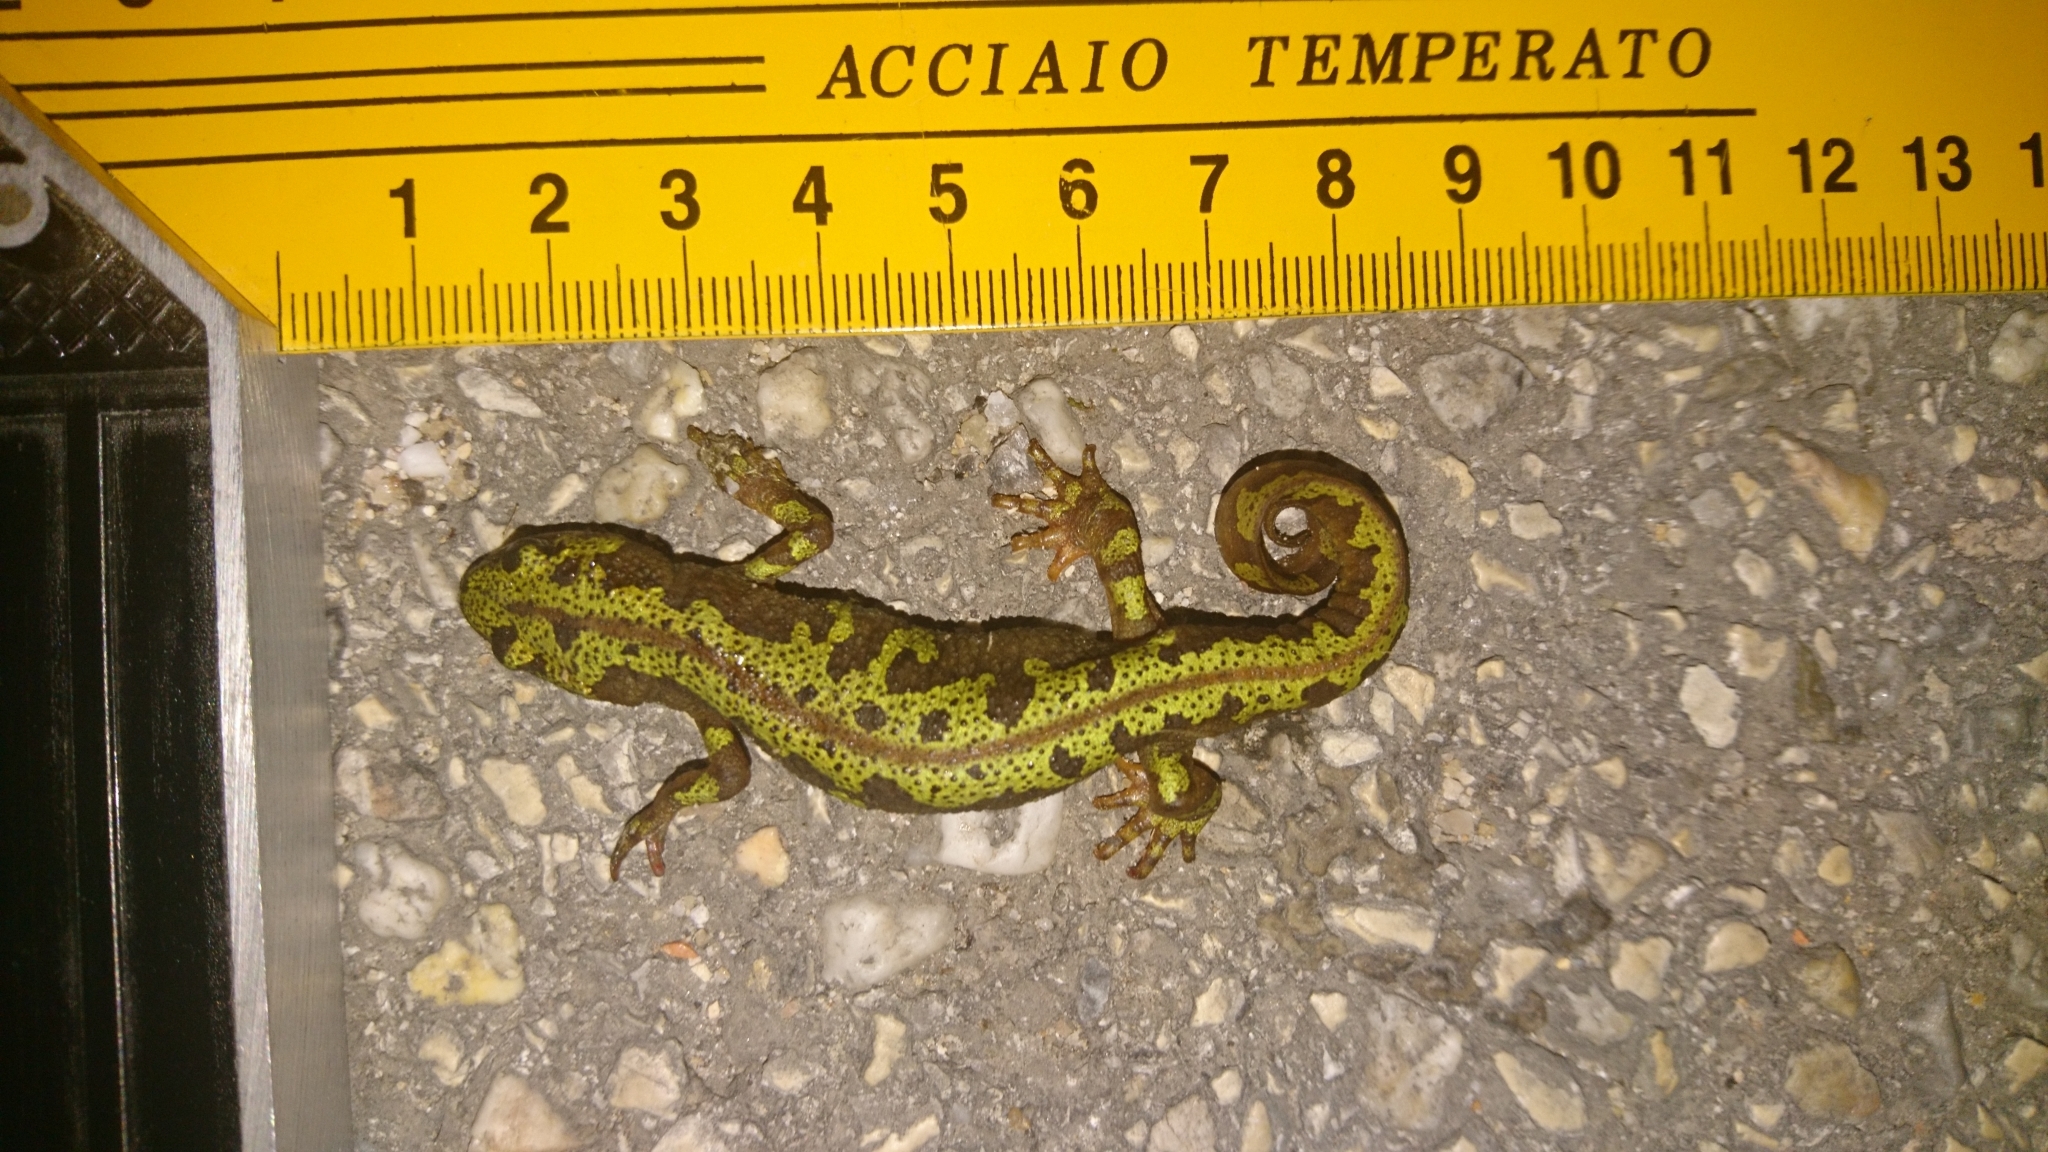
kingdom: Animalia
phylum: Chordata
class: Amphibia
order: Caudata
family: Salamandridae
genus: Triturus
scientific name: Triturus marmoratus
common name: Marbled newt
